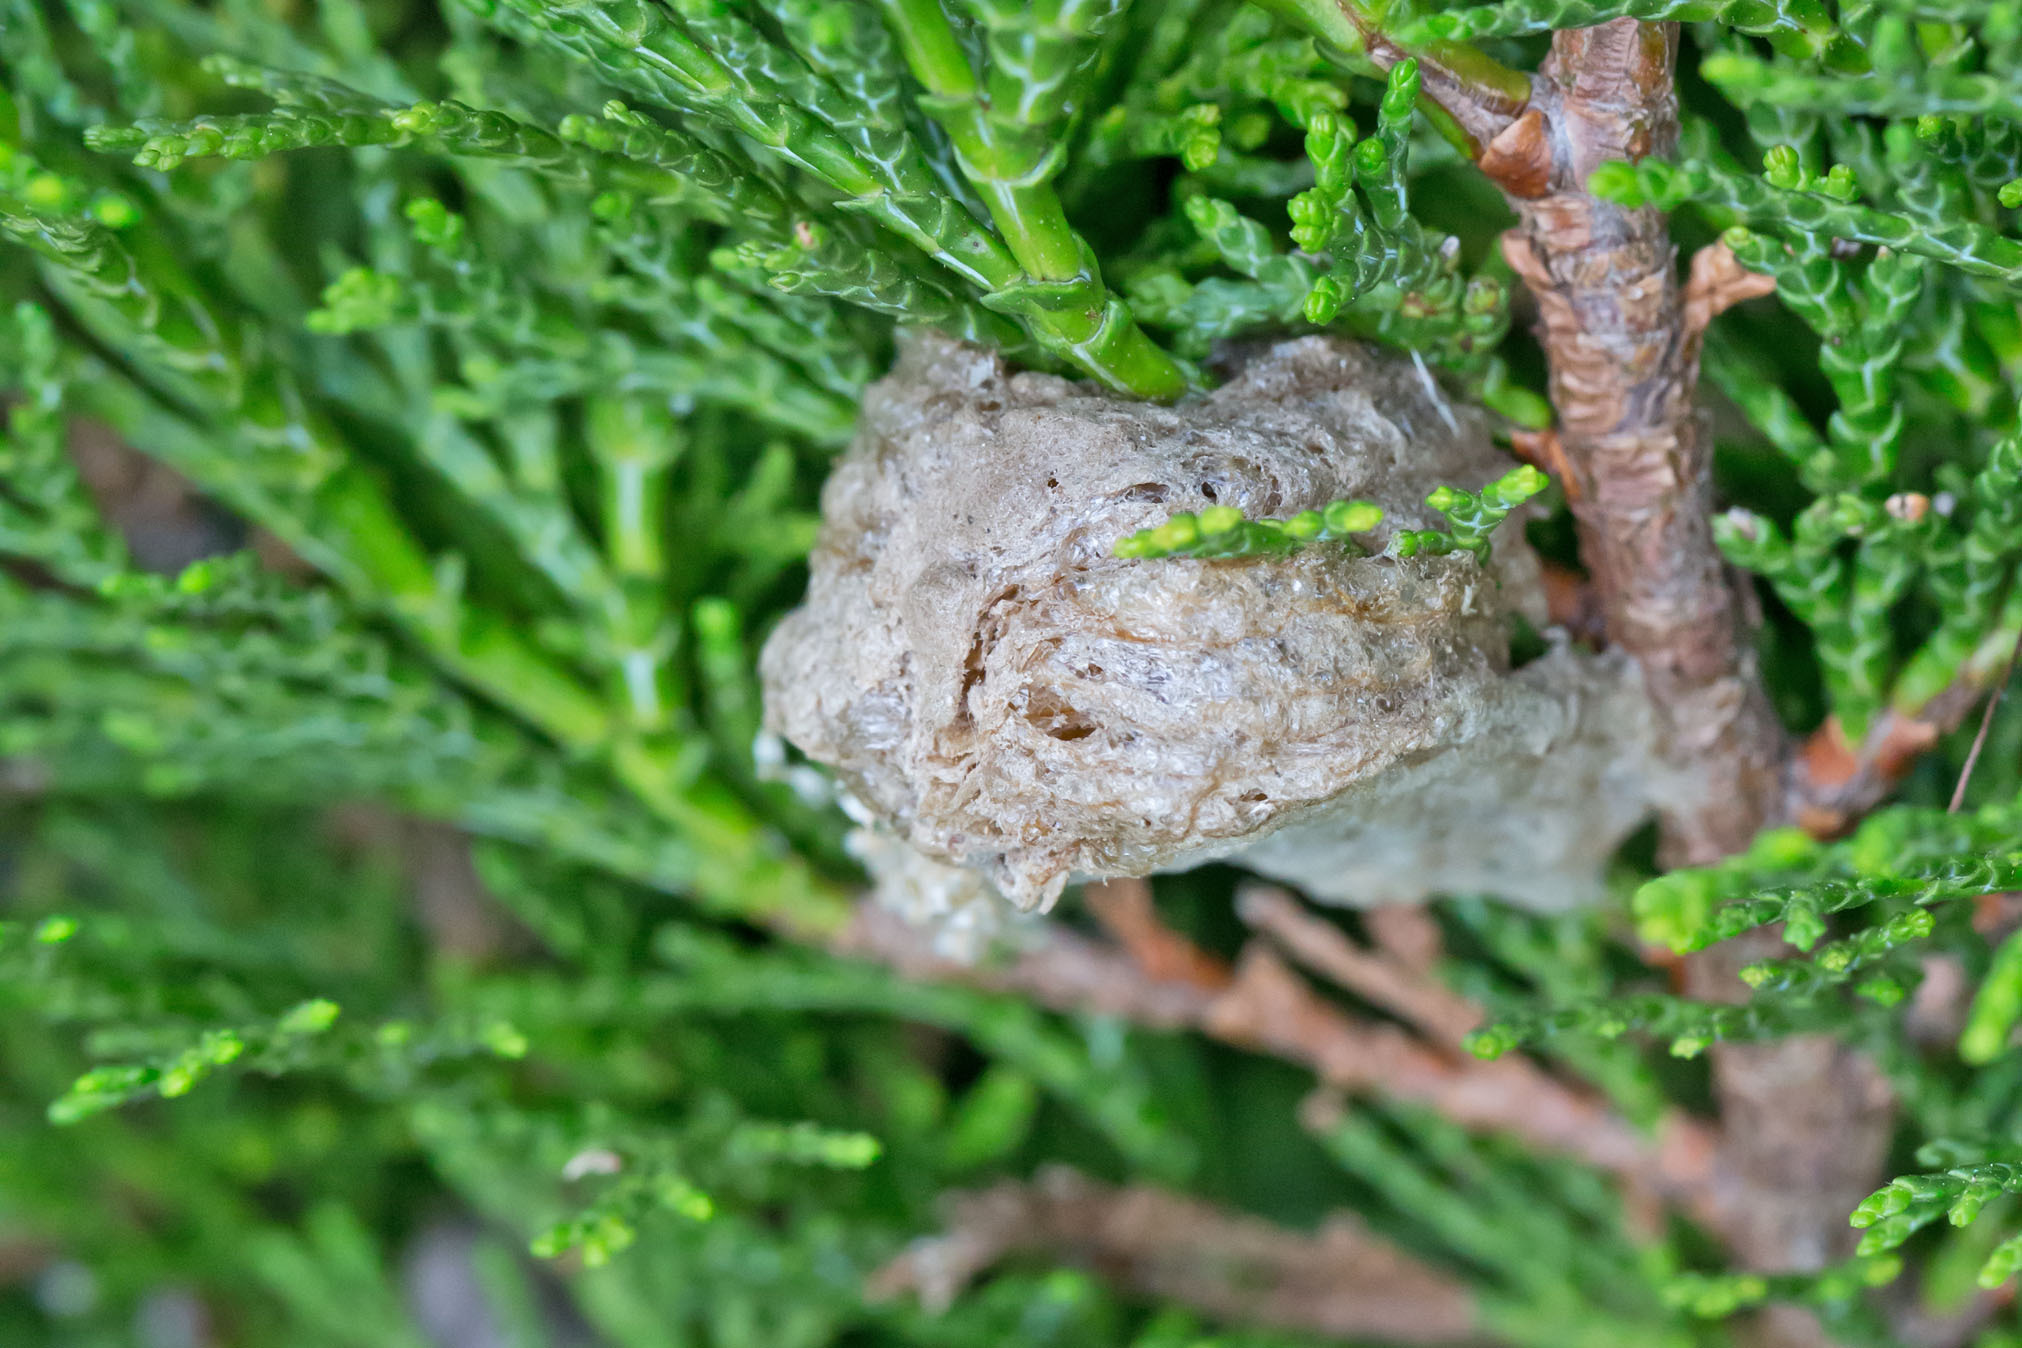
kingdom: Animalia
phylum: Arthropoda
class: Insecta
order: Mantodea
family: Mantidae
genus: Tenodera
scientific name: Tenodera sinensis
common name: Chinese mantis
